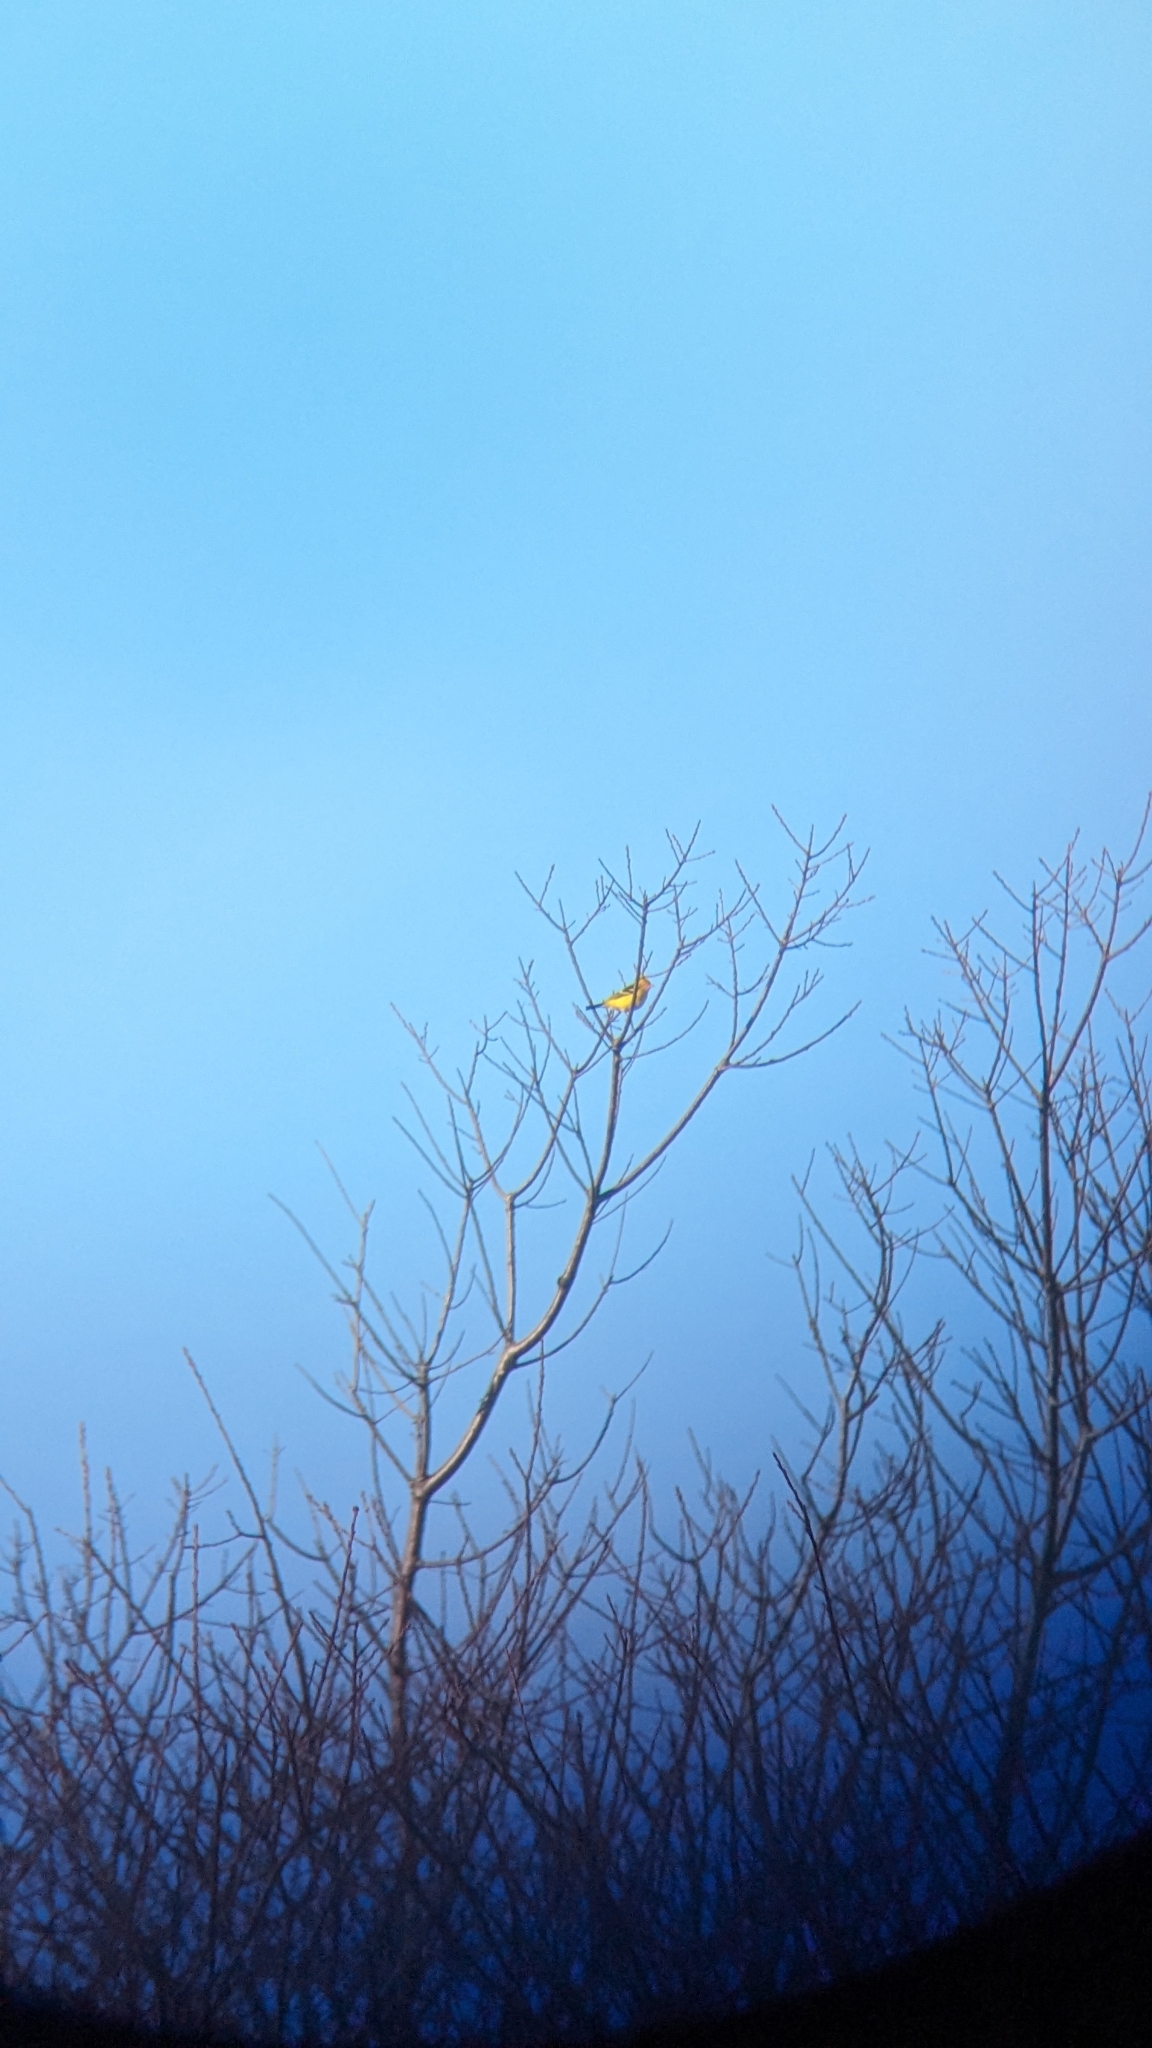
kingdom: Animalia
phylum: Chordata
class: Aves
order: Passeriformes
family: Cardinalidae
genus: Piranga
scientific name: Piranga ludoviciana
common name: Western tanager
